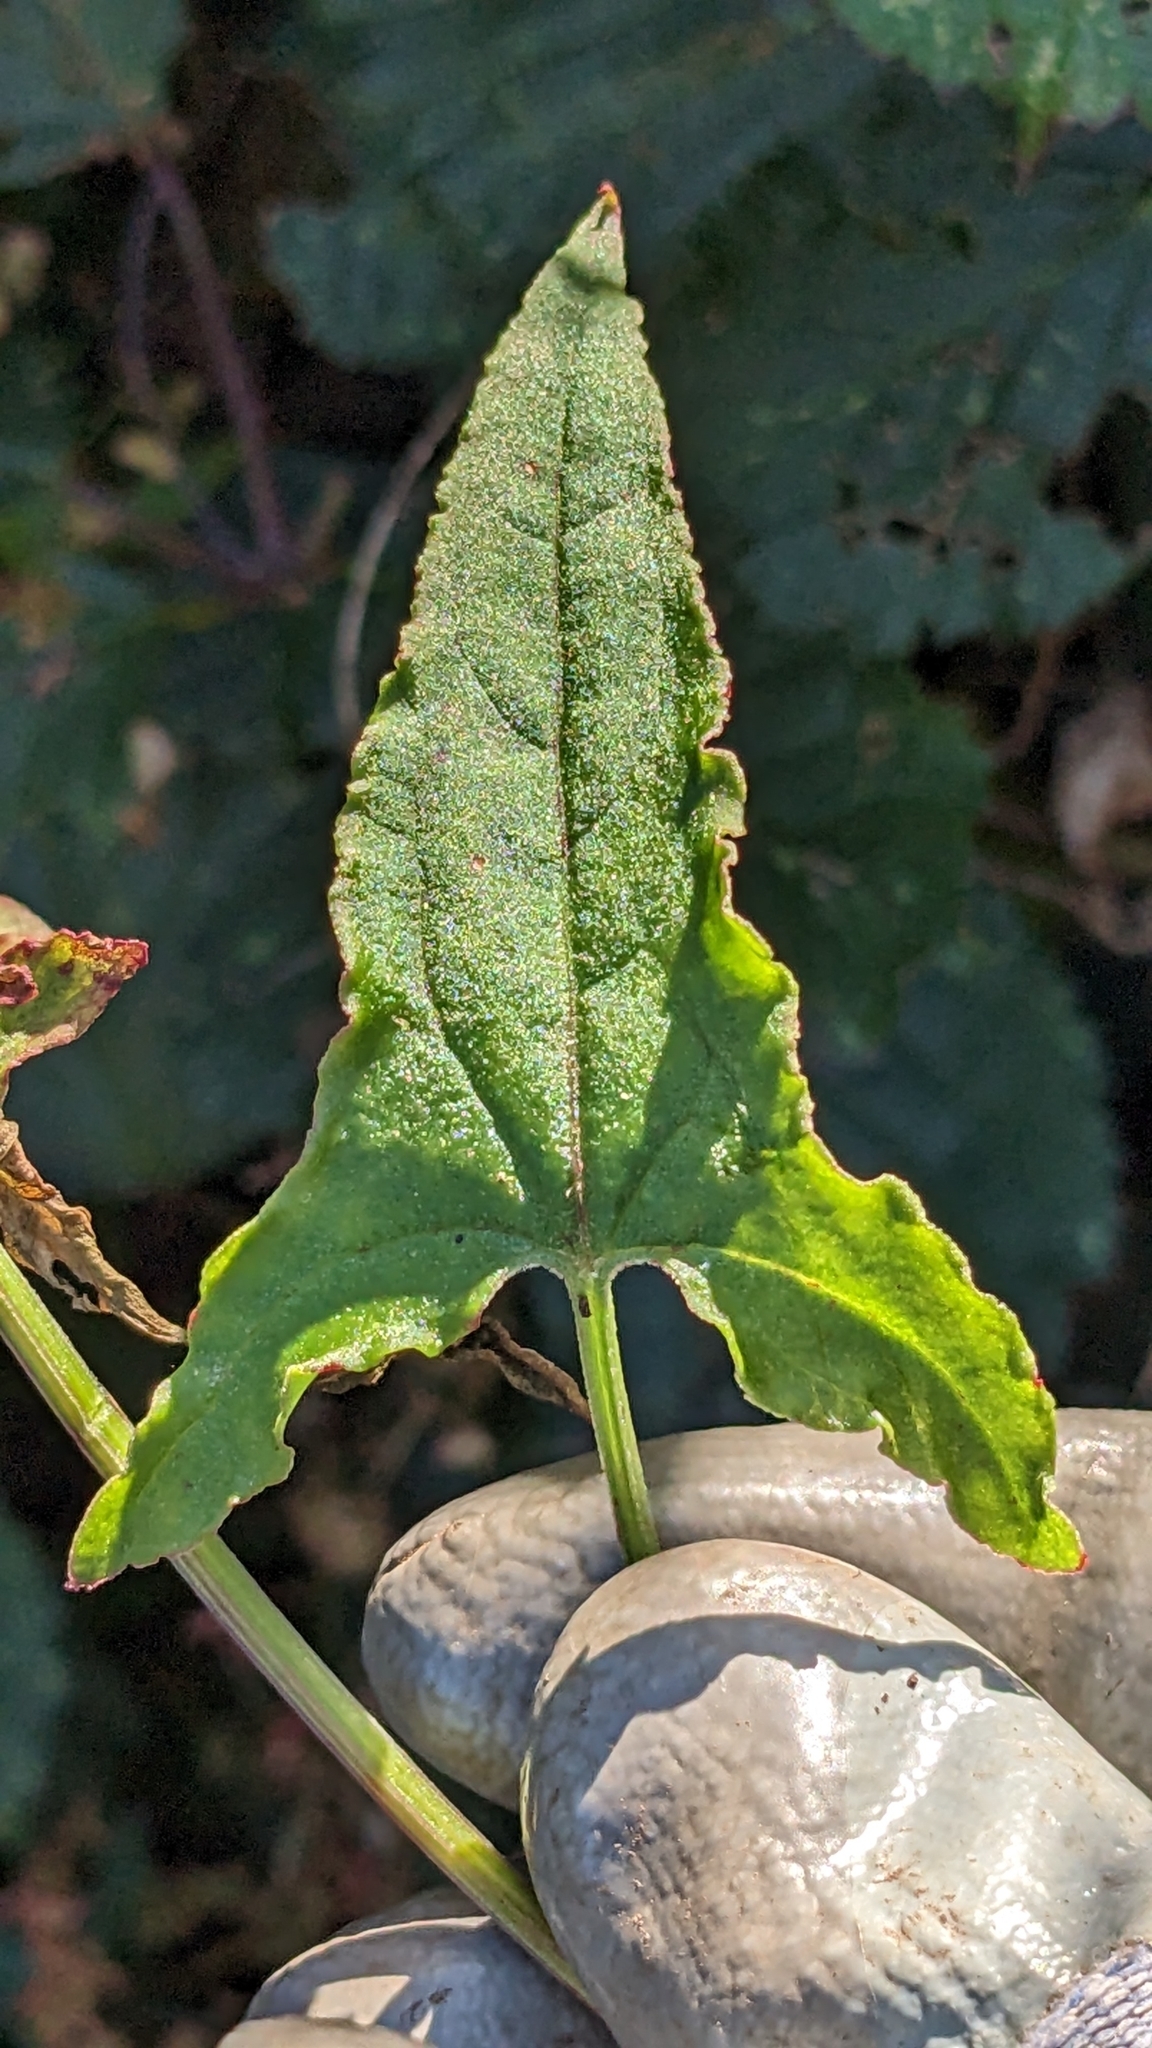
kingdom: Plantae
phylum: Tracheophyta
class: Magnoliopsida
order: Caryophyllales
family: Polygonaceae
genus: Rumex
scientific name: Rumex sagittatus
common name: Climbing dock
